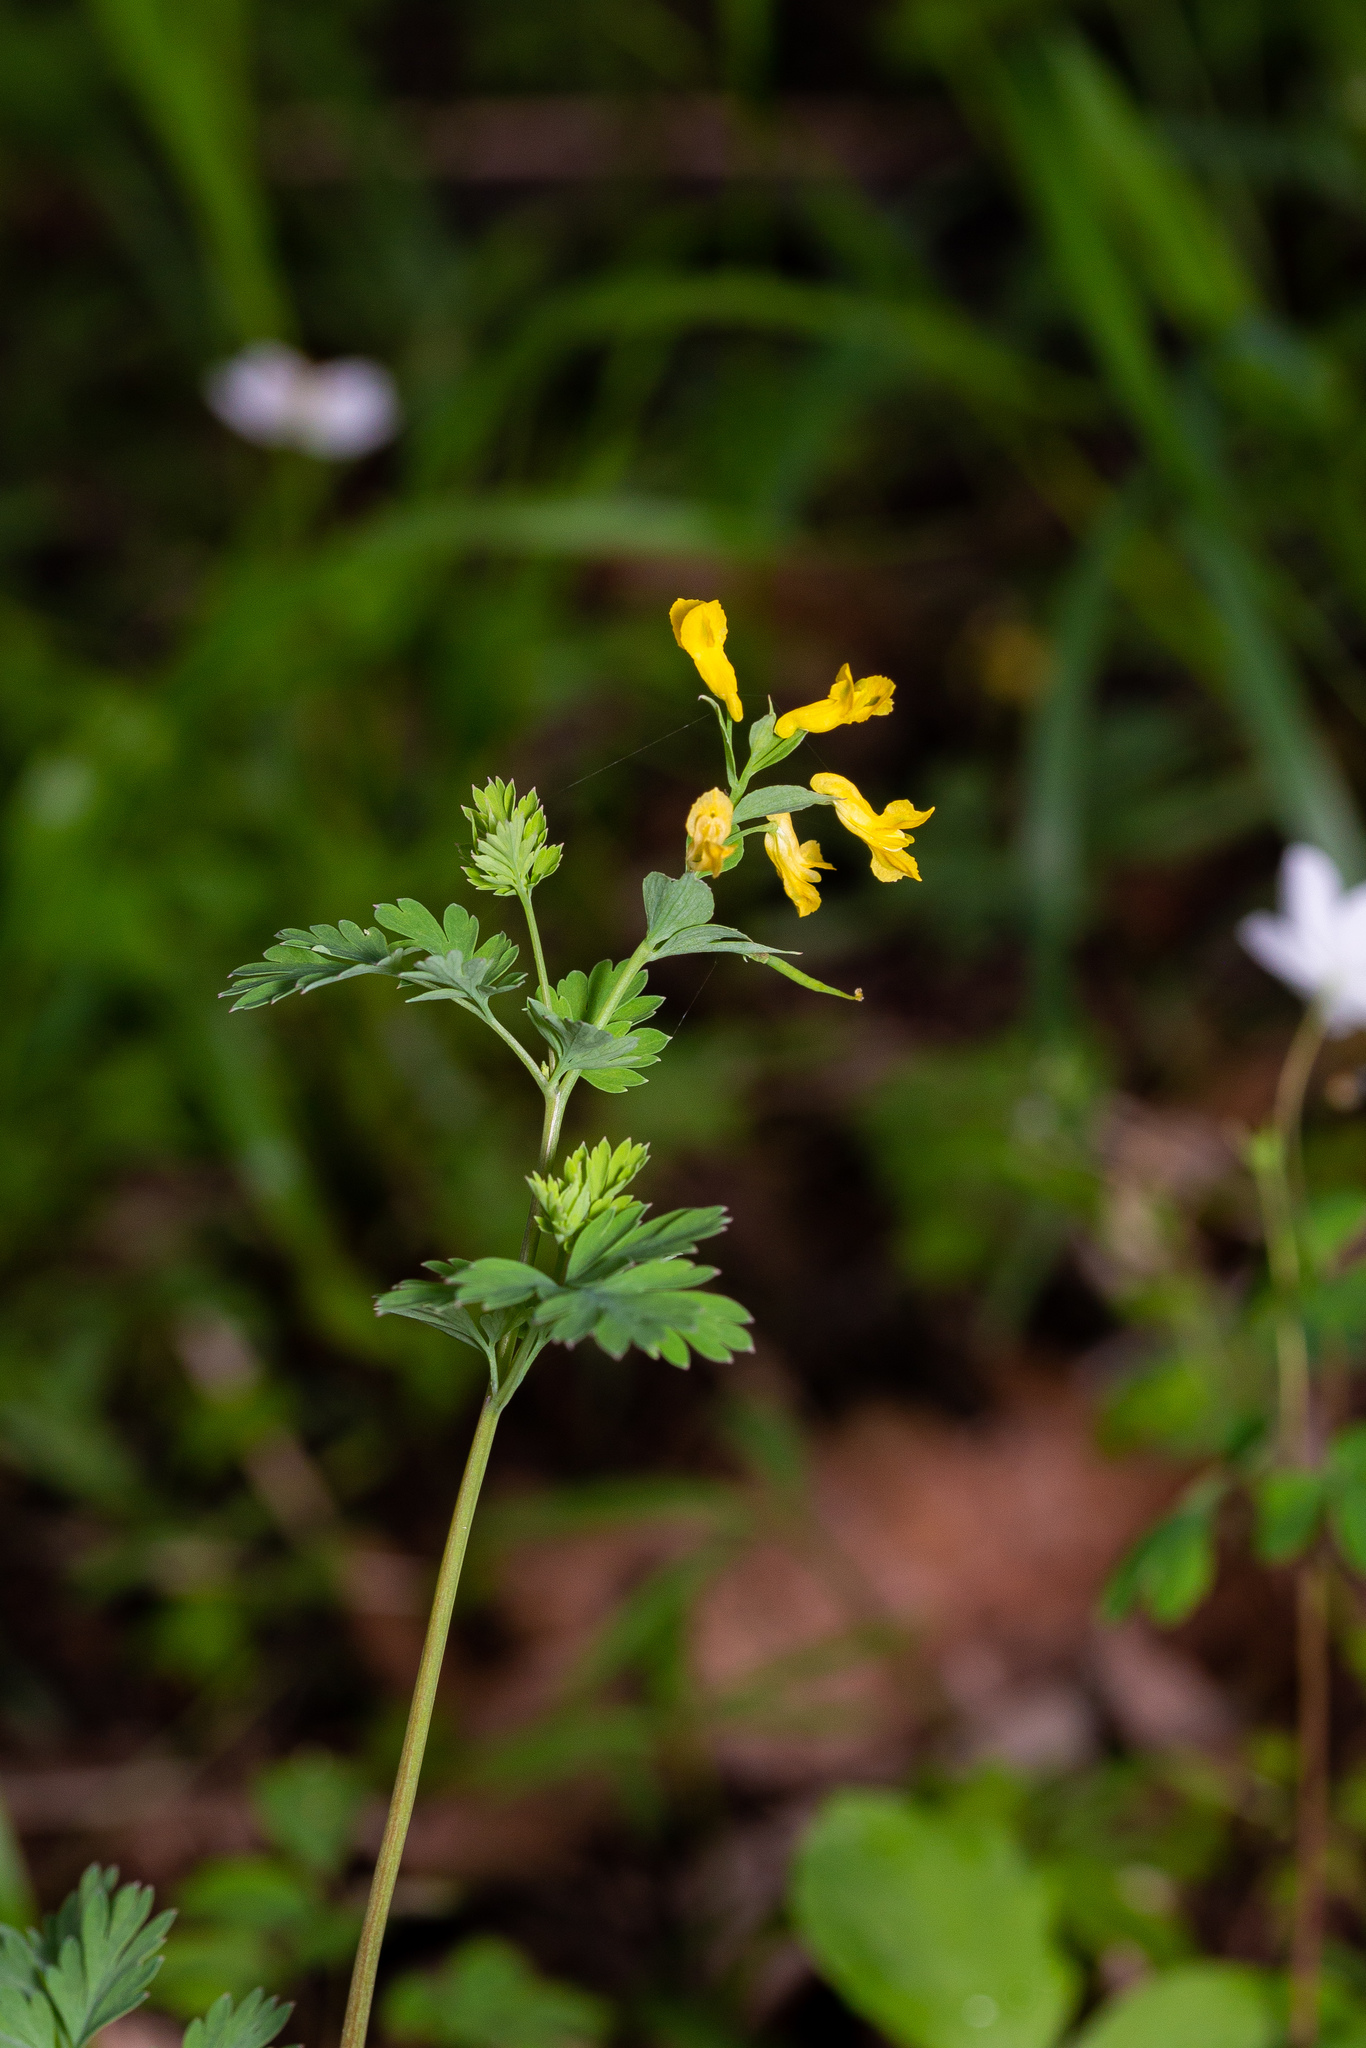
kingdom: Plantae
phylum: Tracheophyta
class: Magnoliopsida
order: Ranunculales
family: Papaveraceae
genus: Corydalis
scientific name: Corydalis flavula
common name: Yellow corydalis
